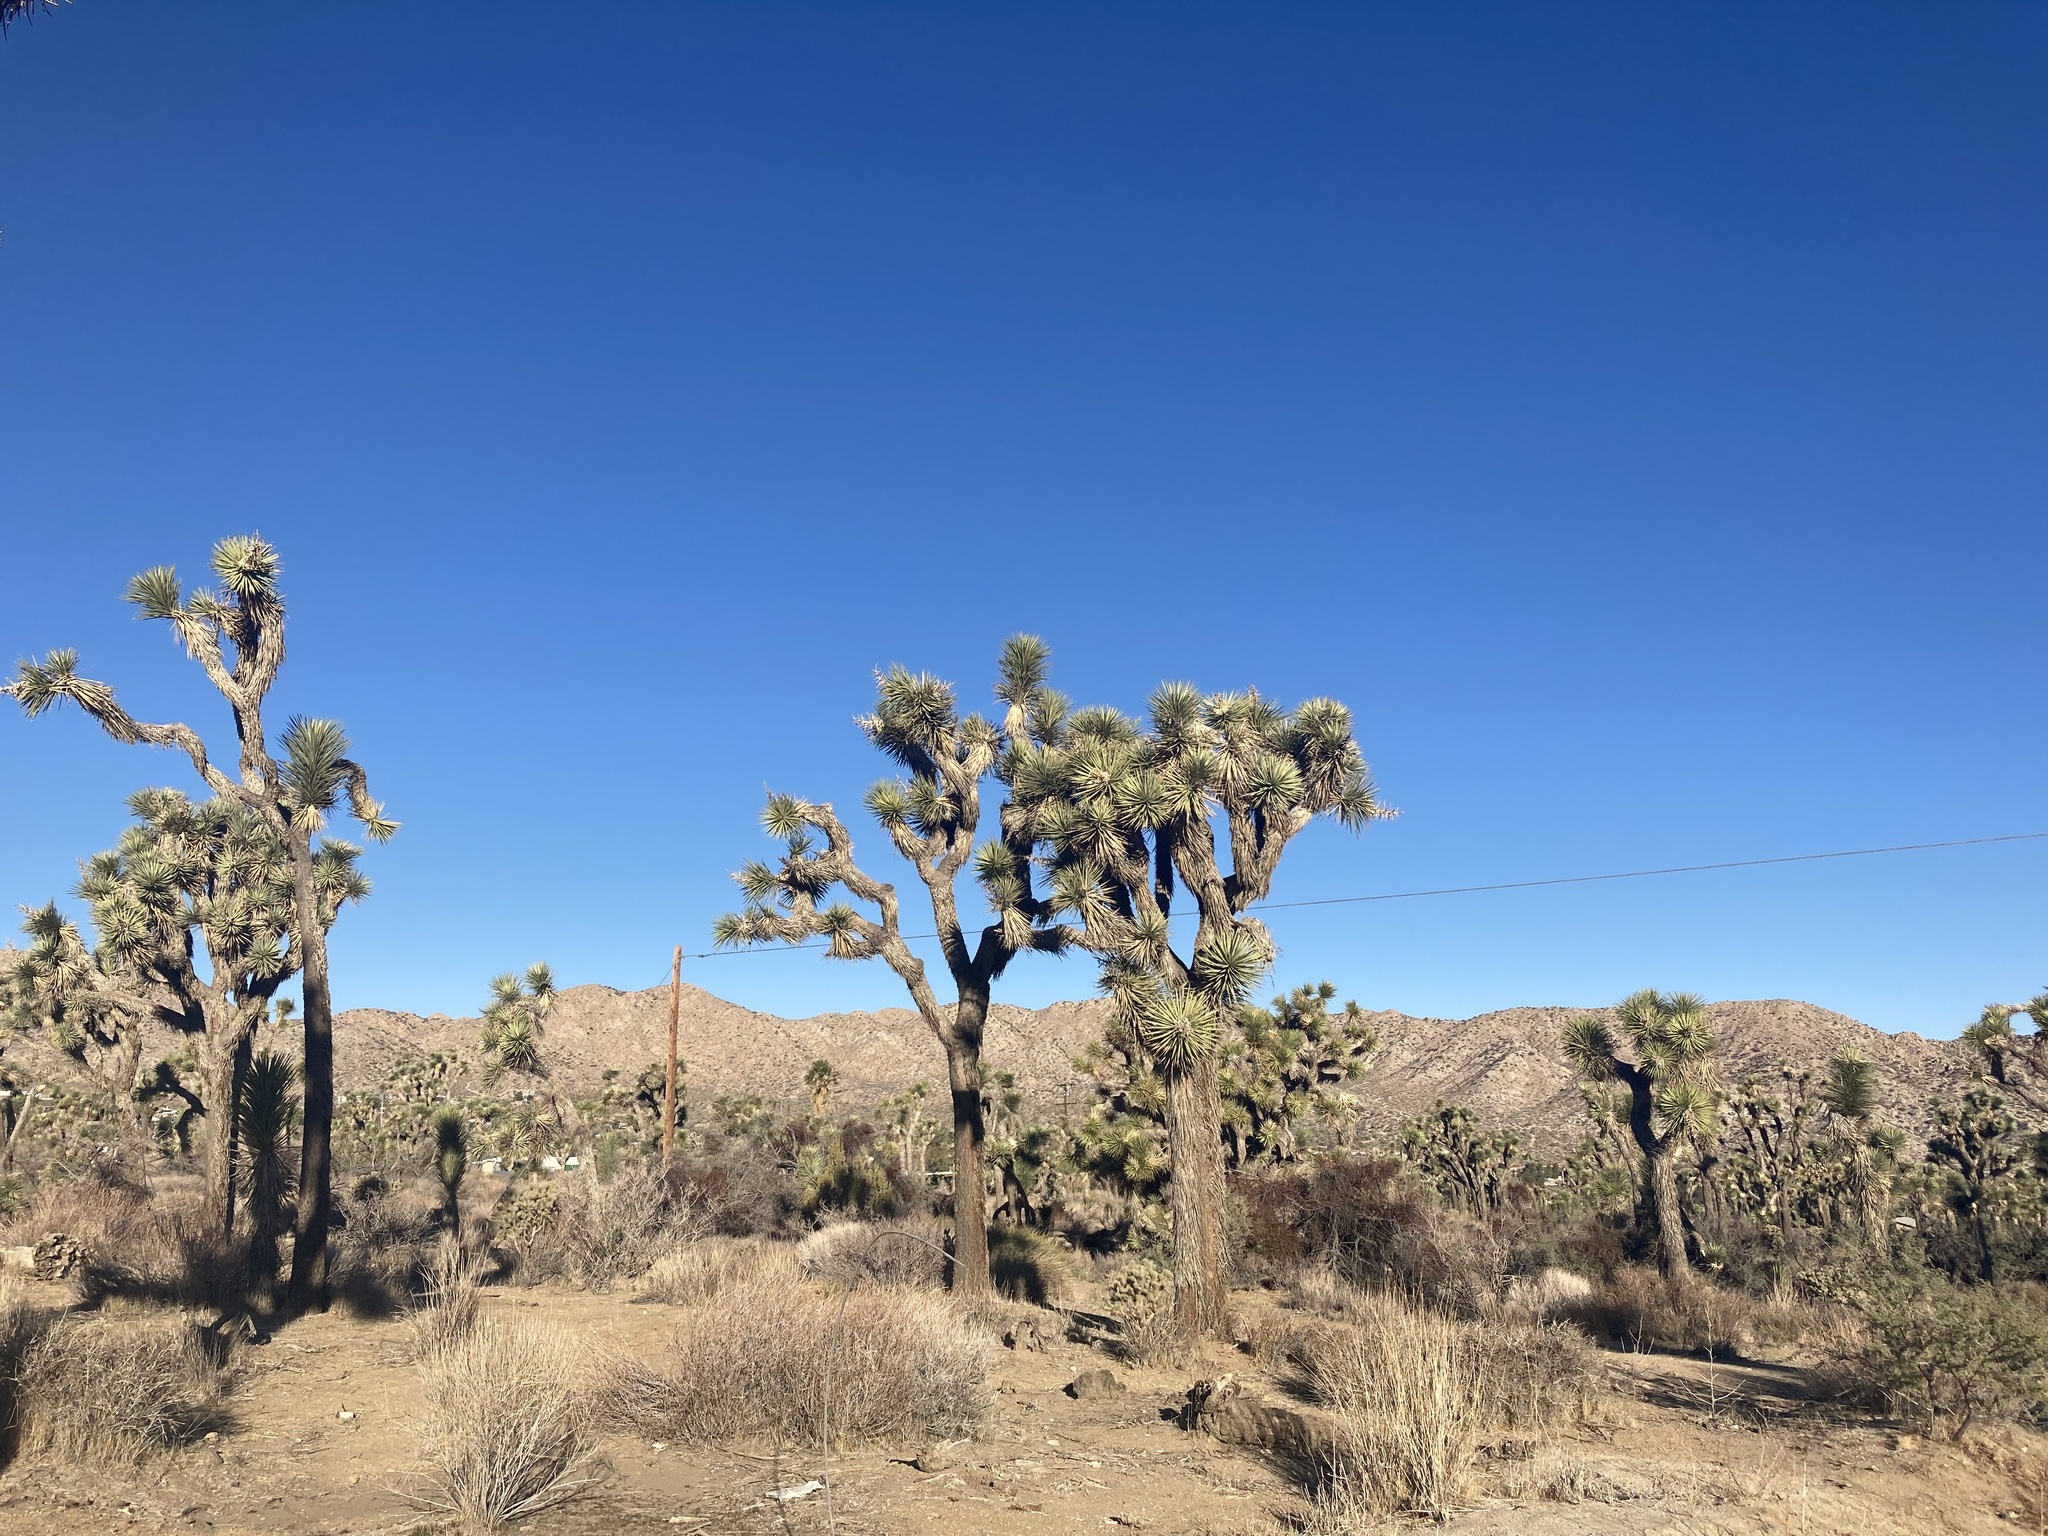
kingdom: Plantae
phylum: Tracheophyta
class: Liliopsida
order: Asparagales
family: Asparagaceae
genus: Yucca
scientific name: Yucca brevifolia
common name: Joshua tree
